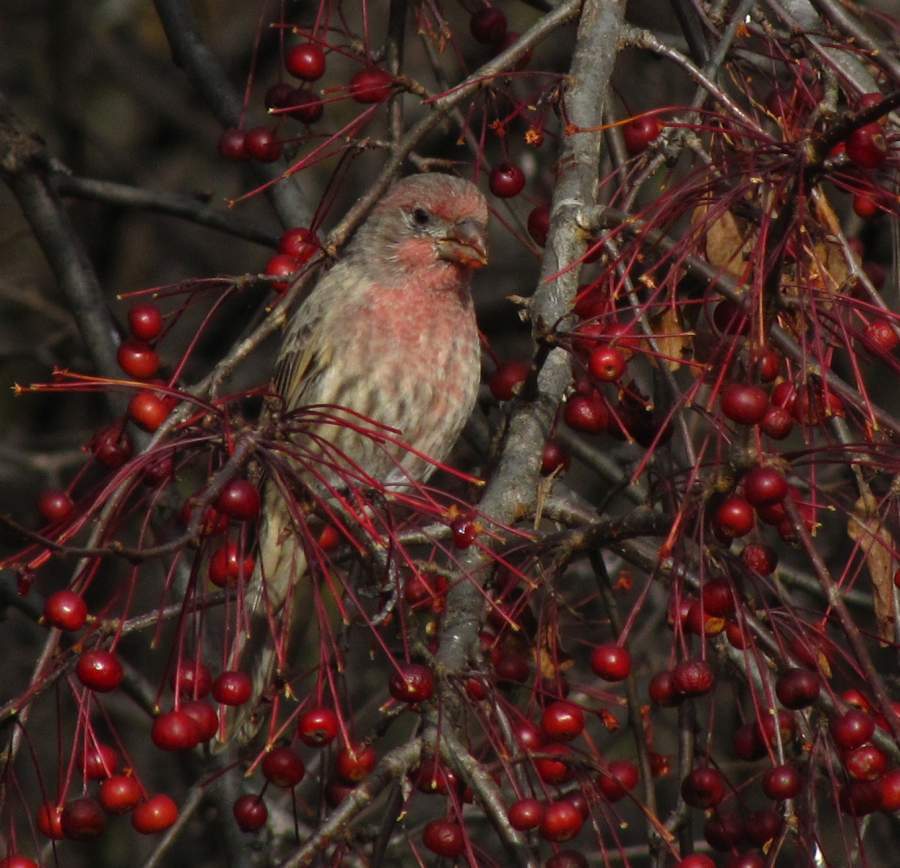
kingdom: Animalia
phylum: Chordata
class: Aves
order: Passeriformes
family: Fringillidae
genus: Haemorhous
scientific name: Haemorhous mexicanus
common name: House finch
